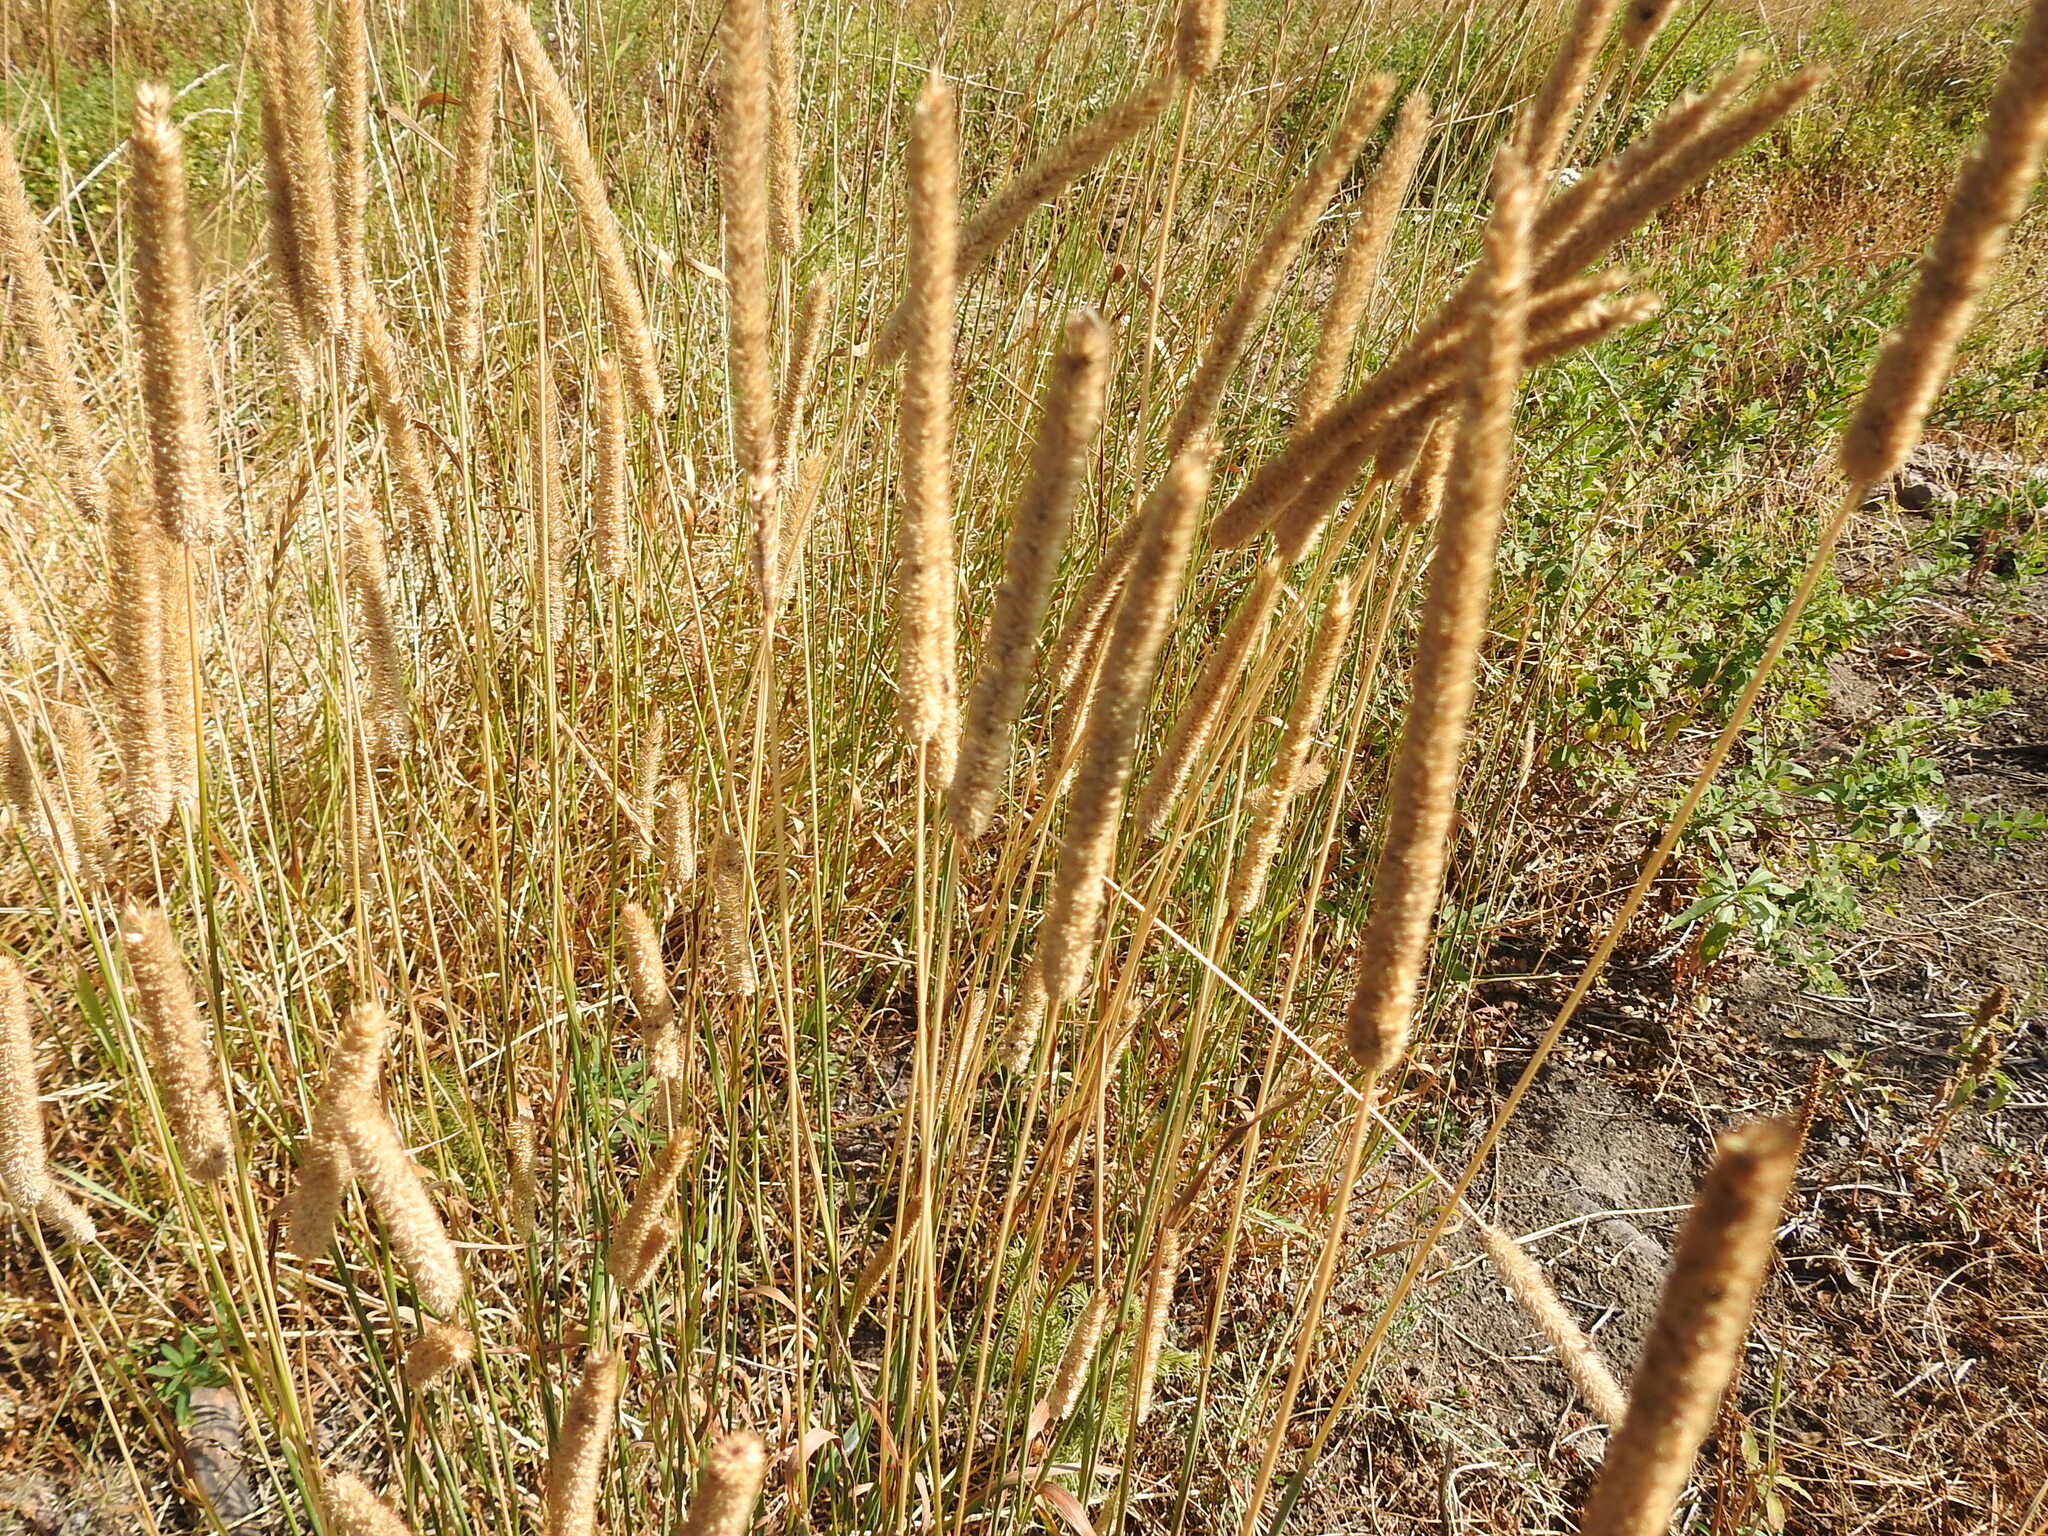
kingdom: Plantae
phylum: Tracheophyta
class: Liliopsida
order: Poales
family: Poaceae
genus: Phleum
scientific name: Phleum pratense
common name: Timothy grass
